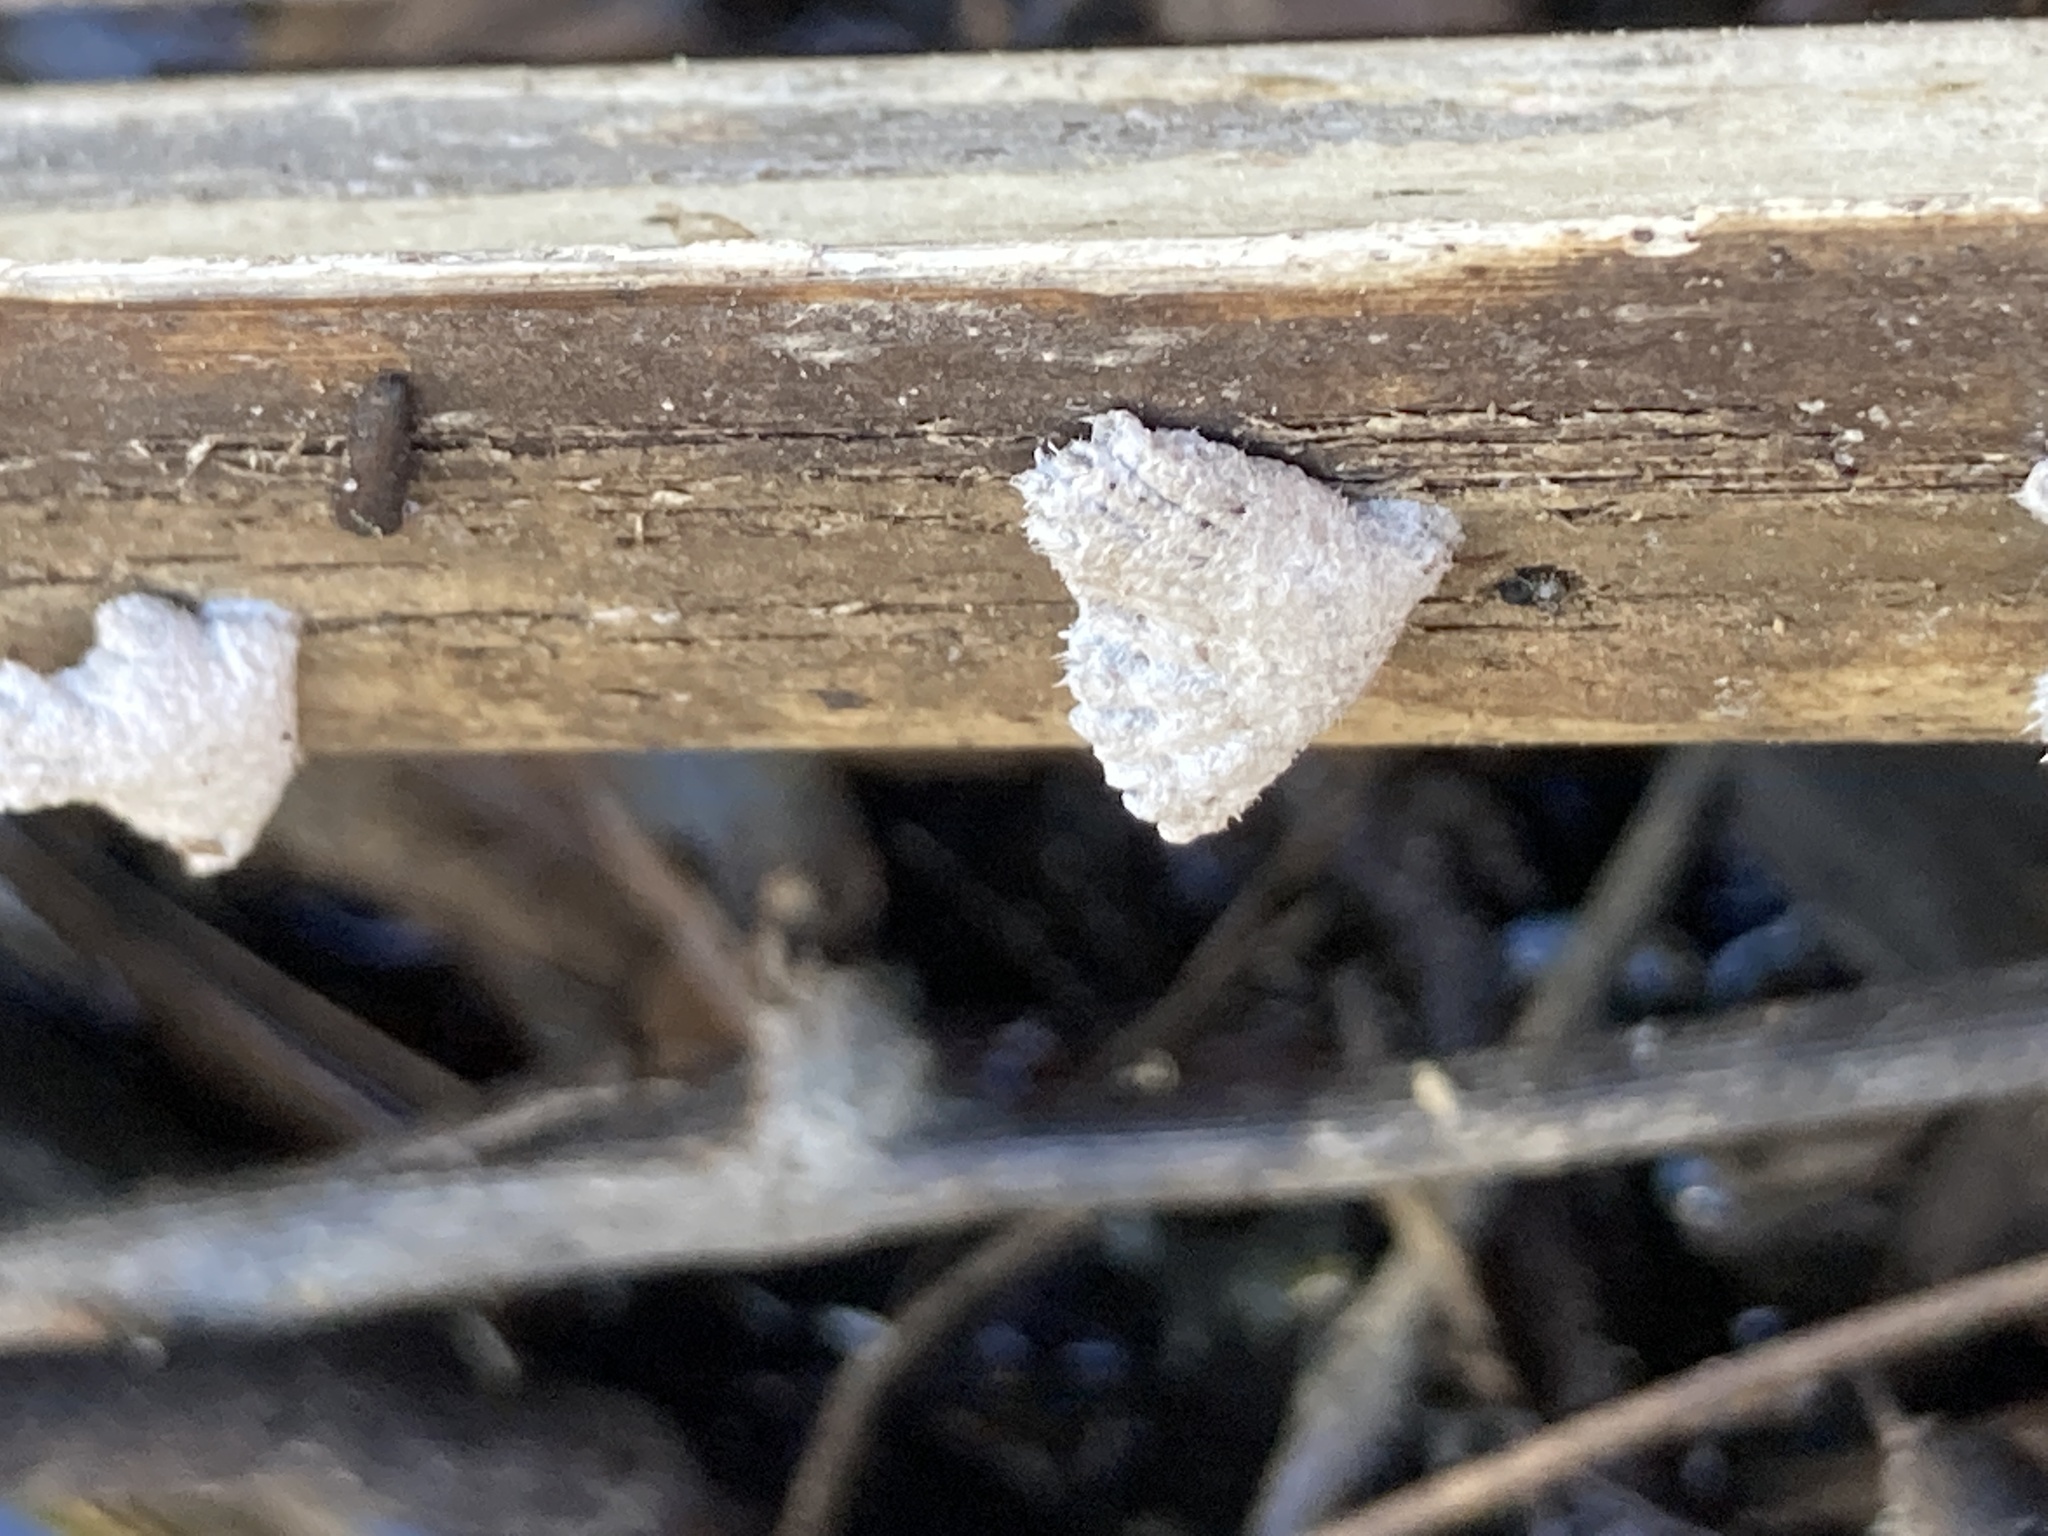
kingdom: Fungi
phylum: Basidiomycota
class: Agaricomycetes
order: Agaricales
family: Schizophyllaceae
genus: Schizophyllum
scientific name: Schizophyllum commune
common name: Common porecrust
